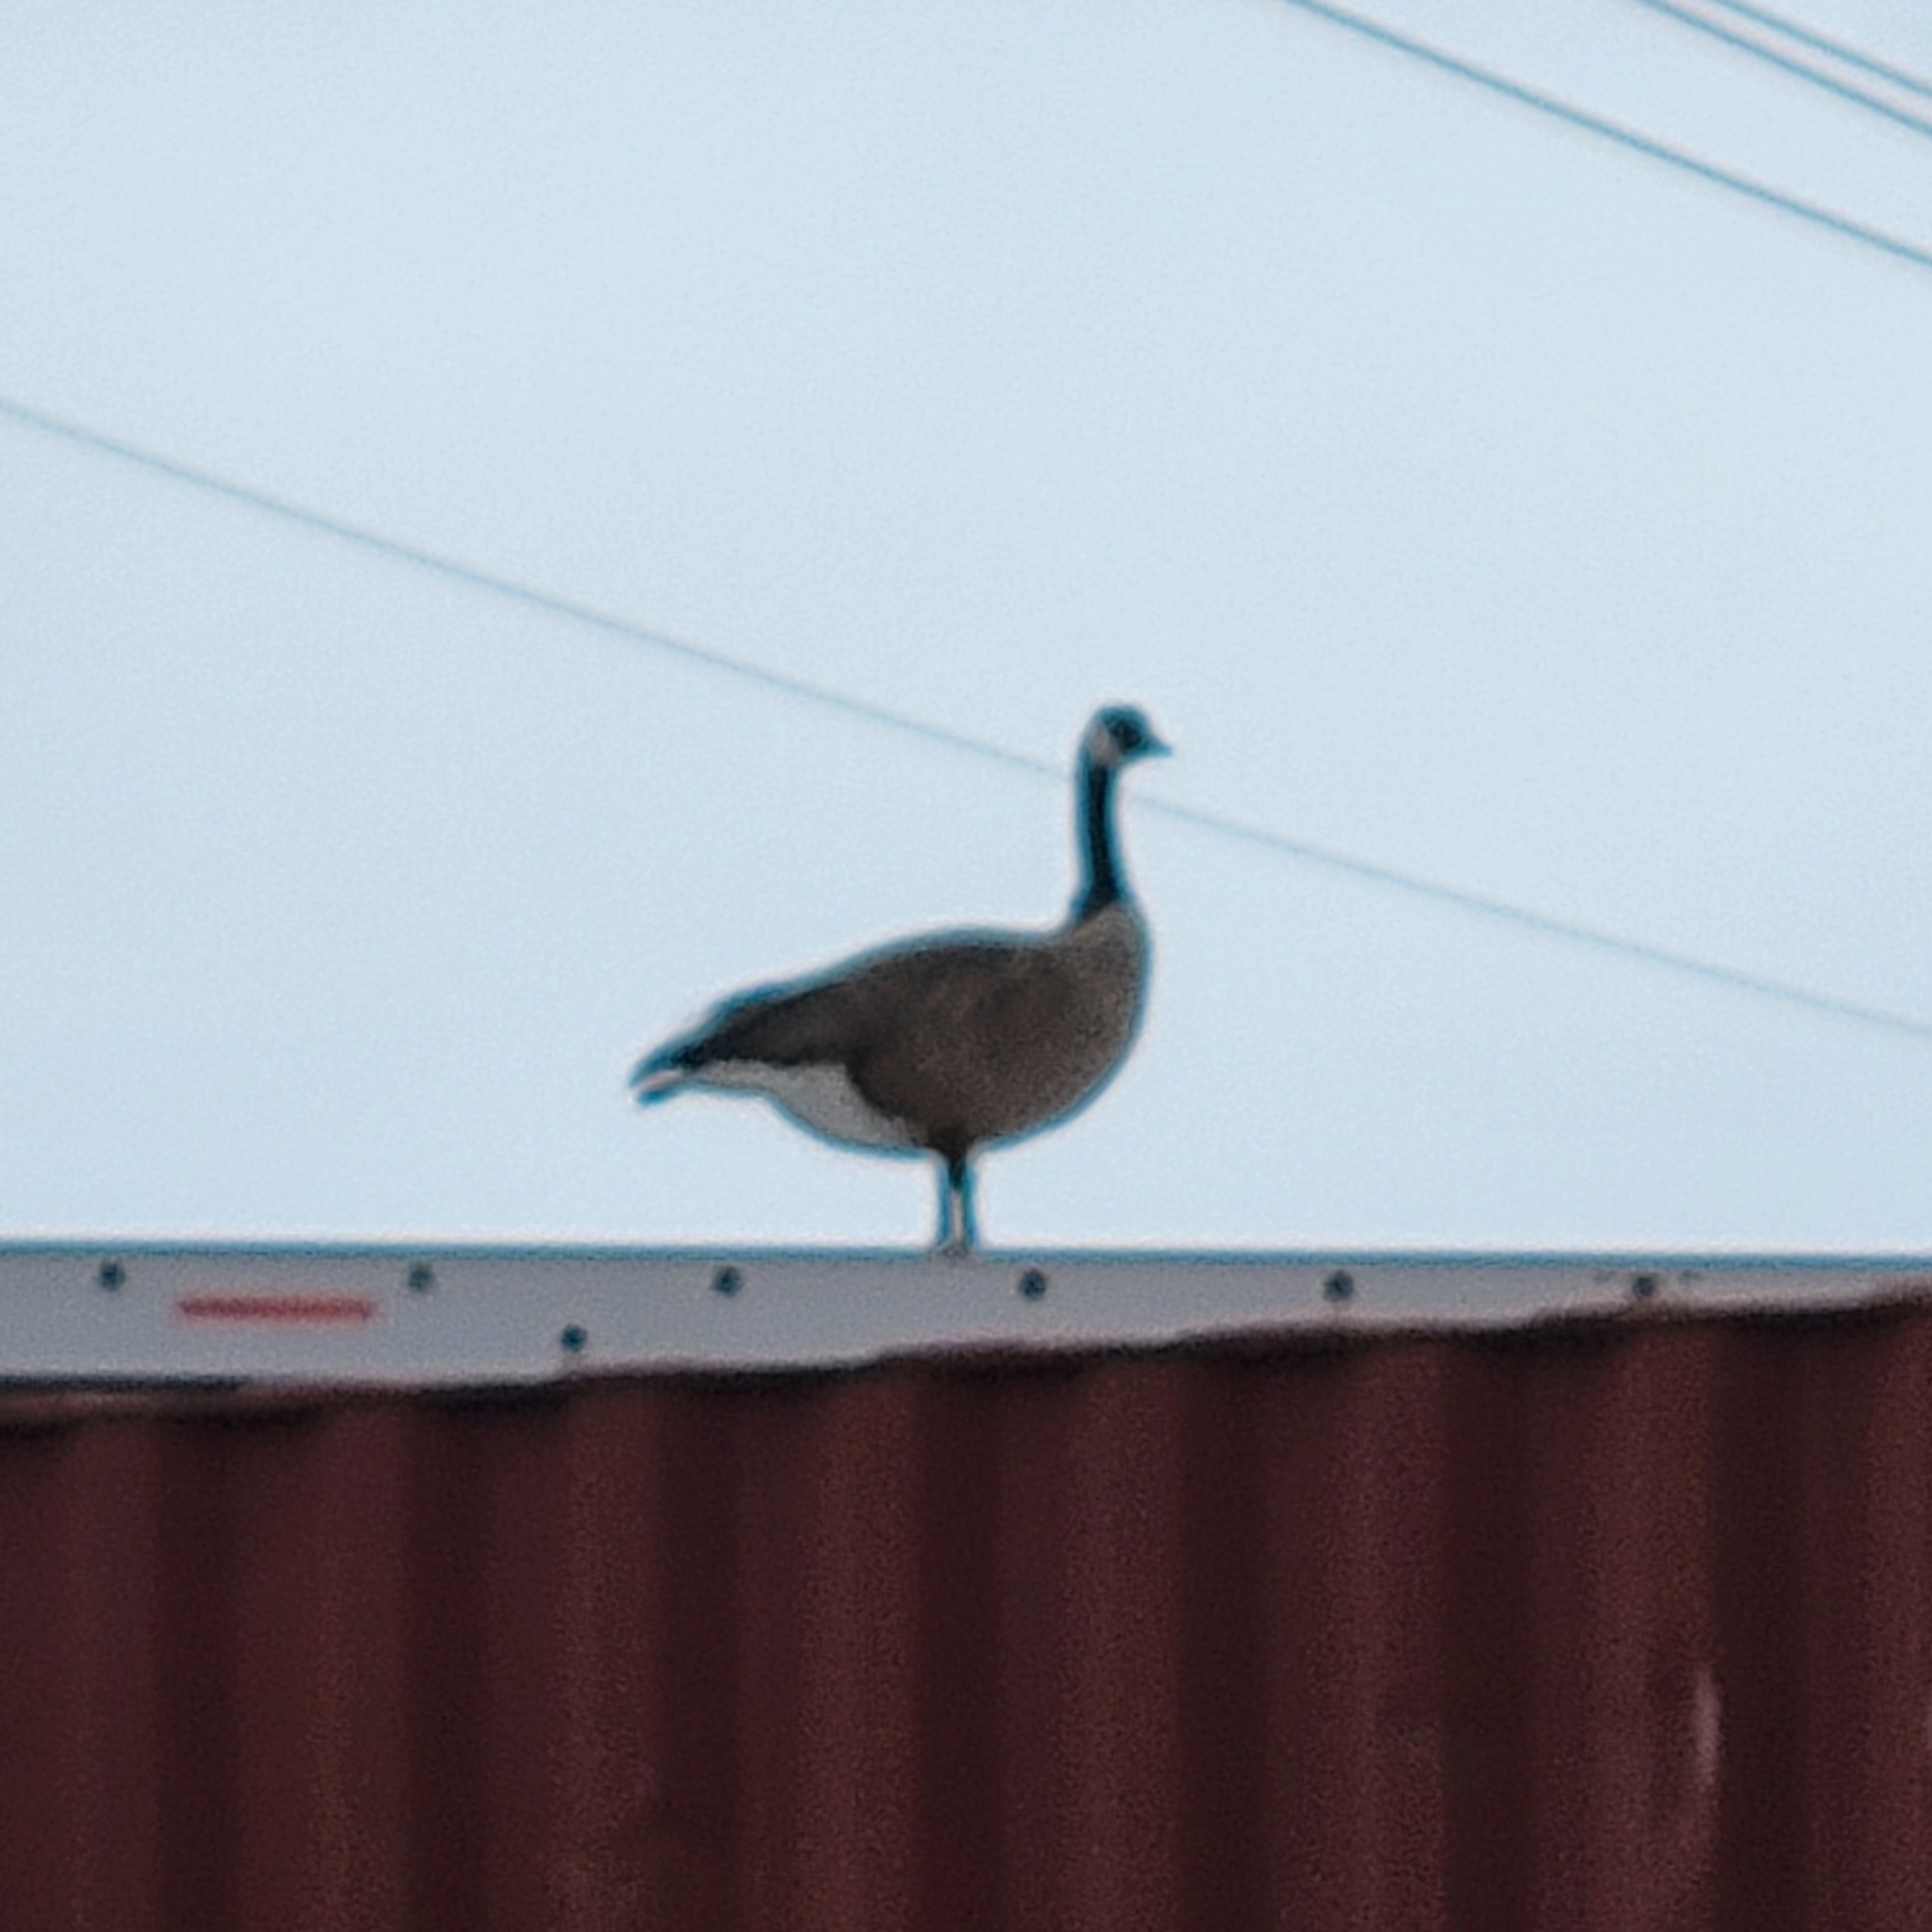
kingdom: Animalia
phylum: Chordata
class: Aves
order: Anseriformes
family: Anatidae
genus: Branta
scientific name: Branta canadensis
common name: Canada goose
